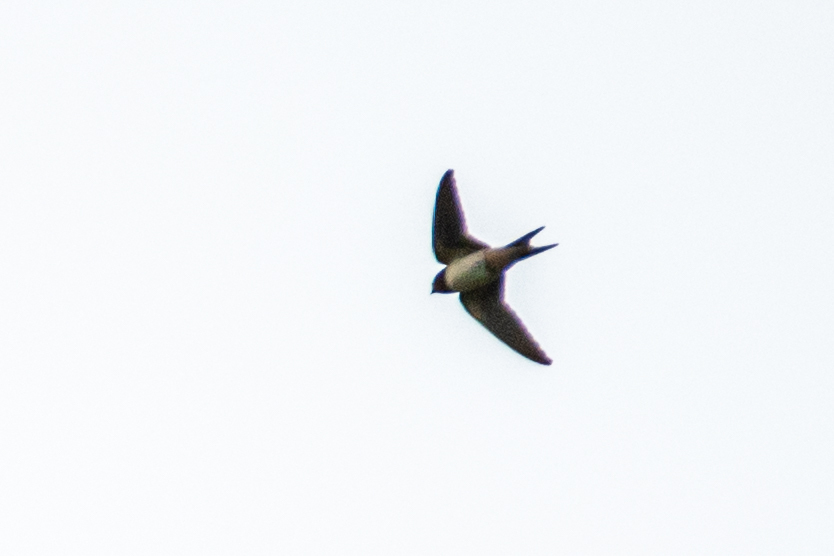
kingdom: Animalia
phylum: Chordata
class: Aves
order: Passeriformes
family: Hirundinidae
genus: Hirundo
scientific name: Hirundo rustica
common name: Barn swallow
